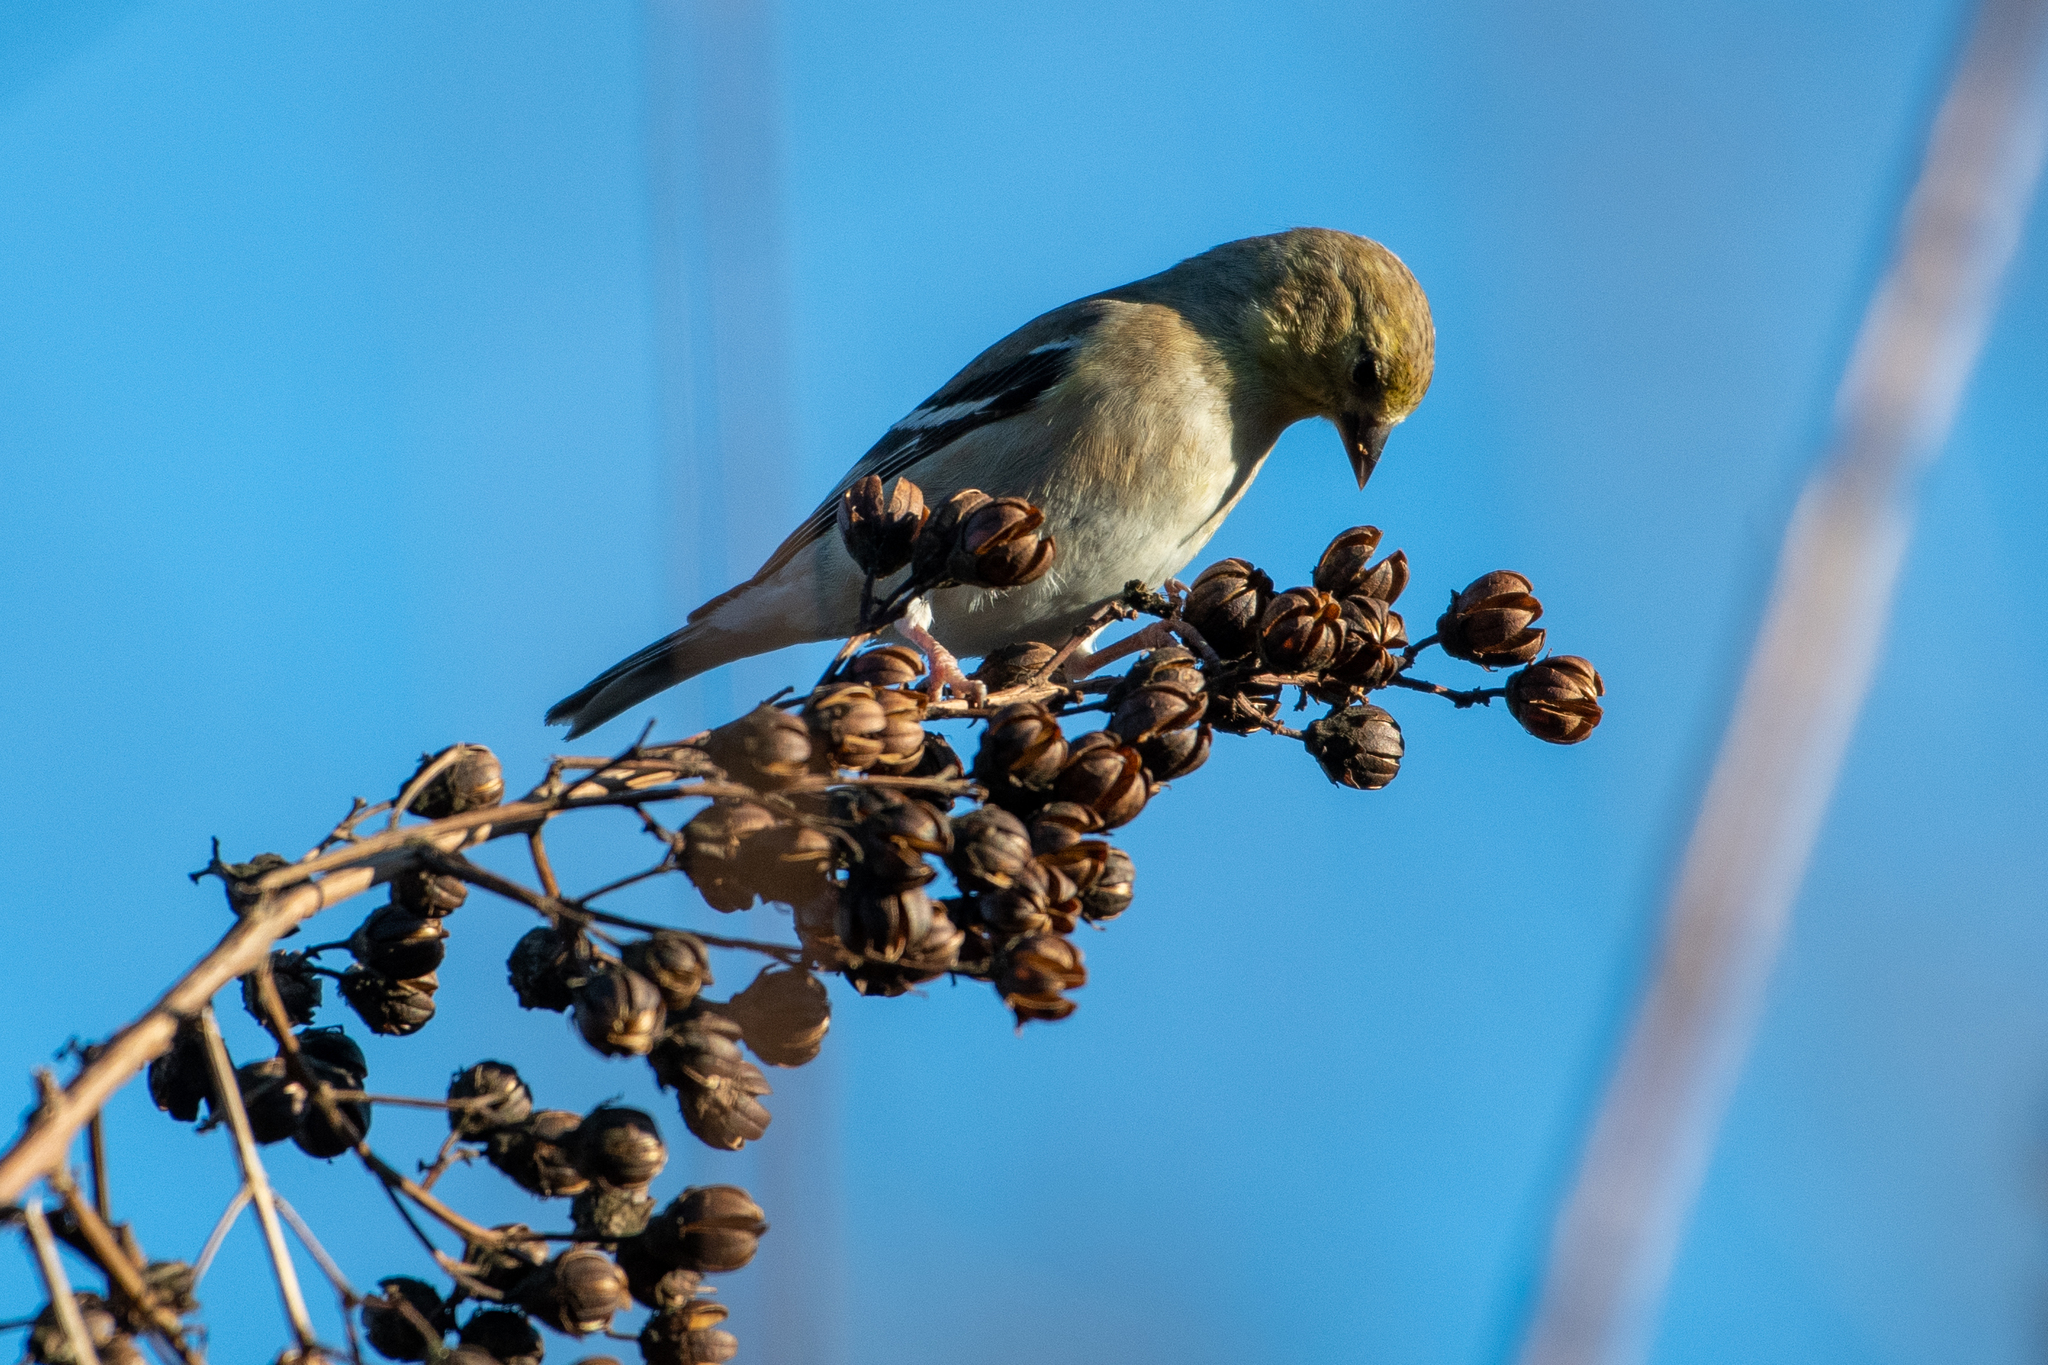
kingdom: Animalia
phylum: Chordata
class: Aves
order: Passeriformes
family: Fringillidae
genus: Spinus
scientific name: Spinus tristis
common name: American goldfinch
